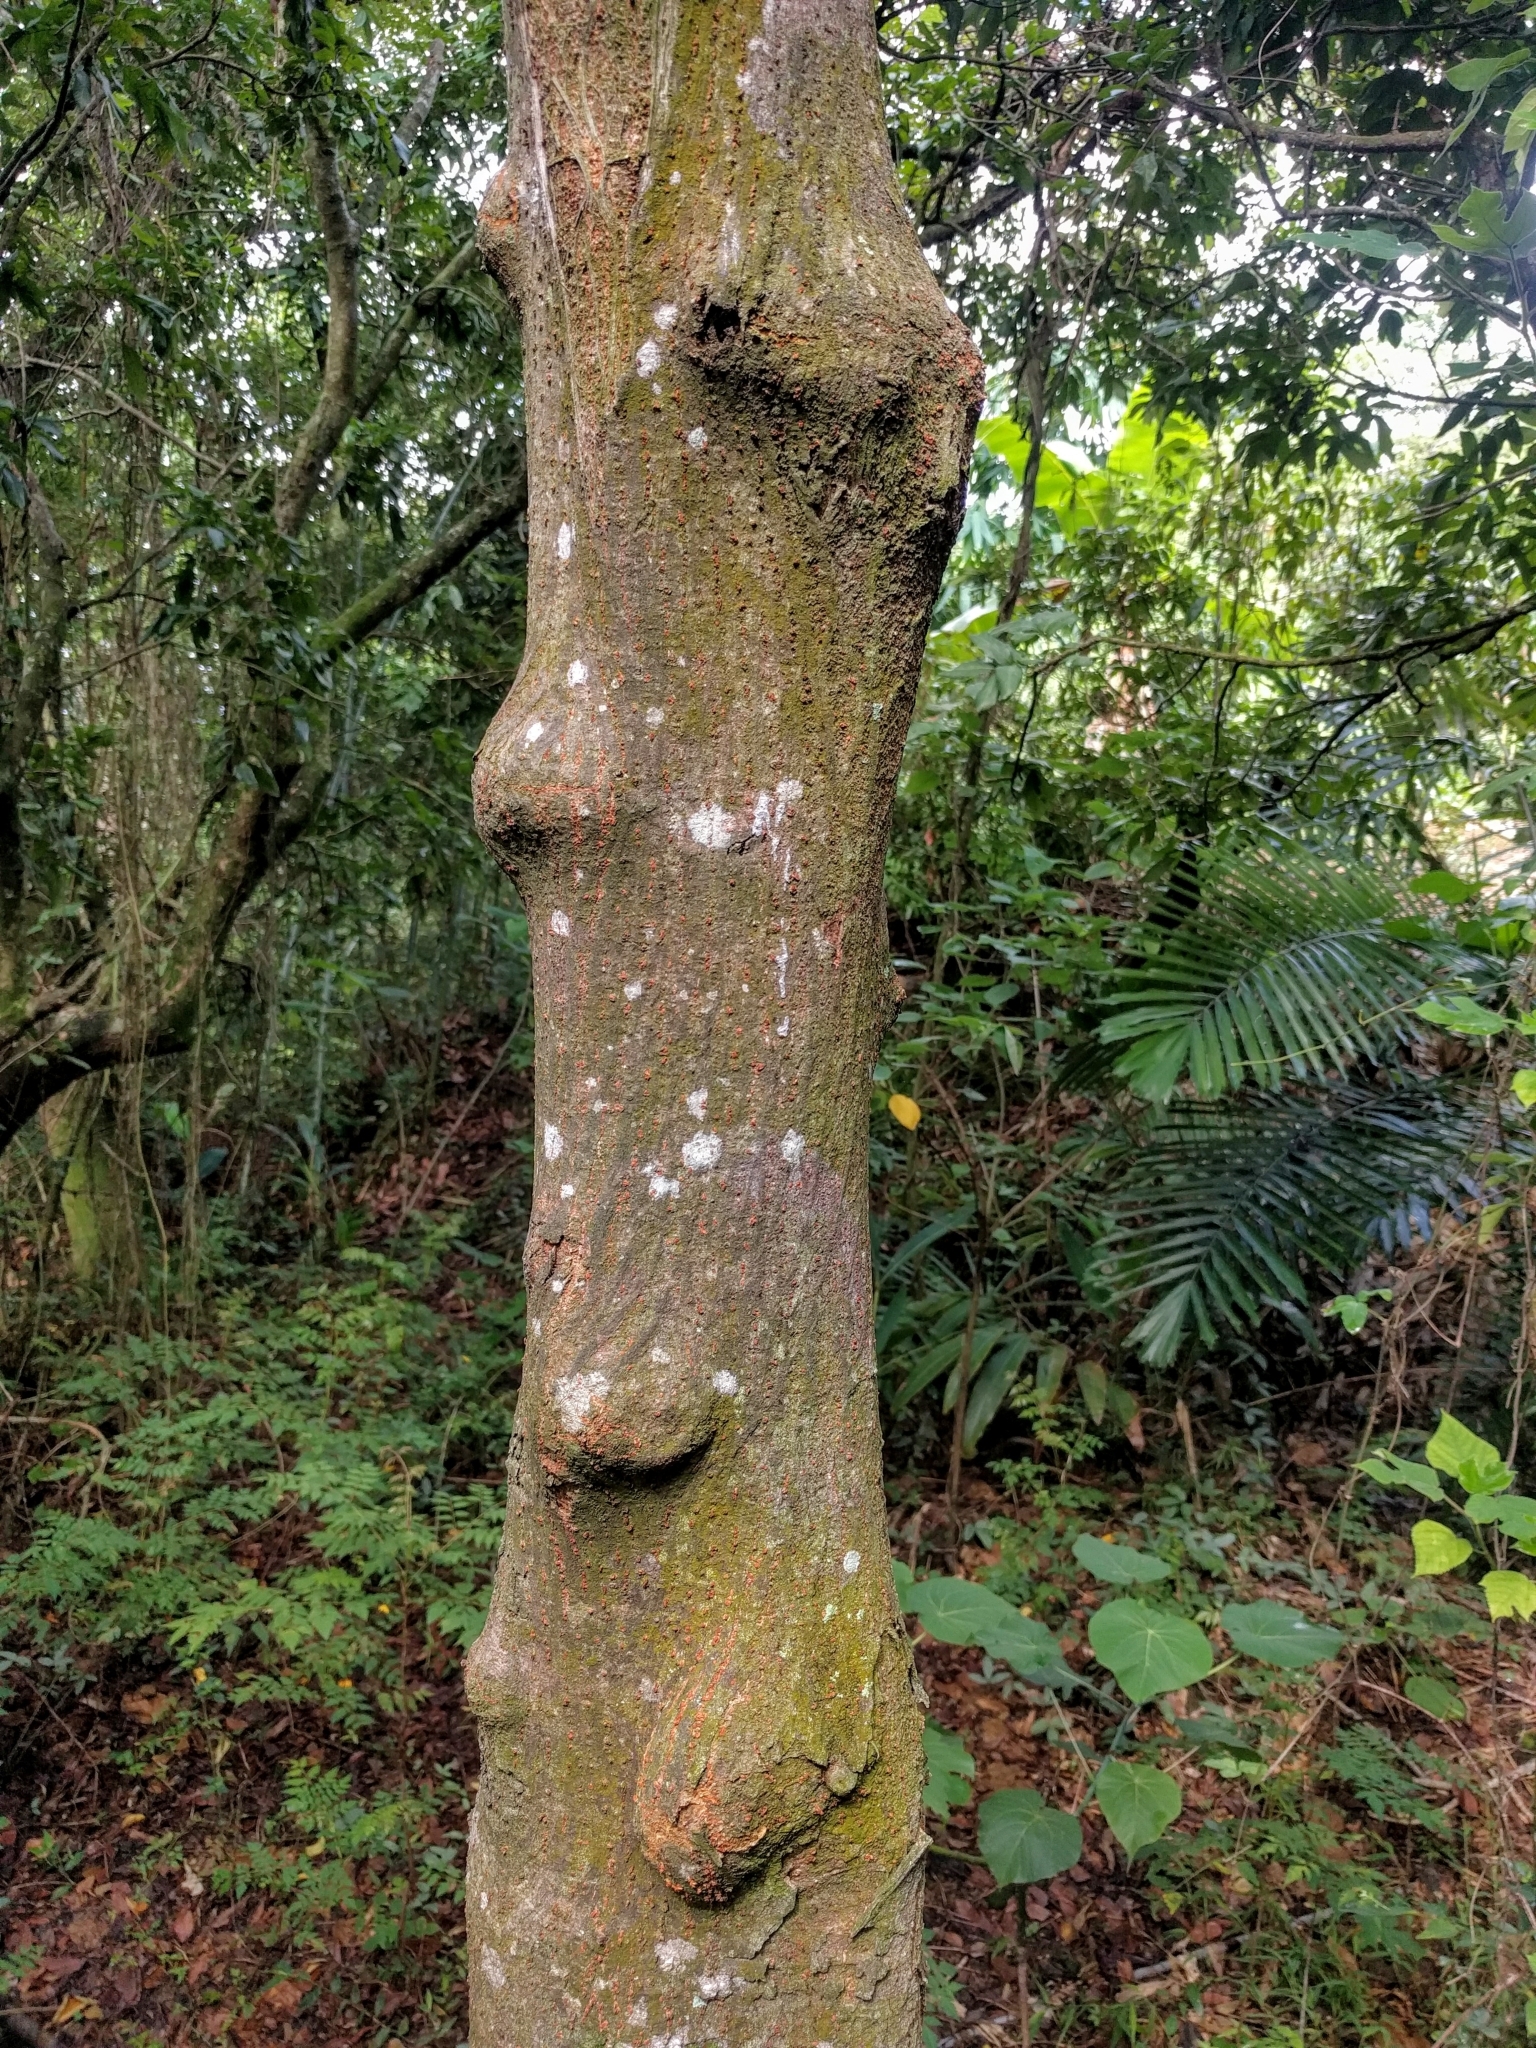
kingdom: Plantae
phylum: Tracheophyta
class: Magnoliopsida
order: Rosales
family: Moraceae
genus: Broussonetia
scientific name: Broussonetia papyrifera
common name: Paper mulberry
